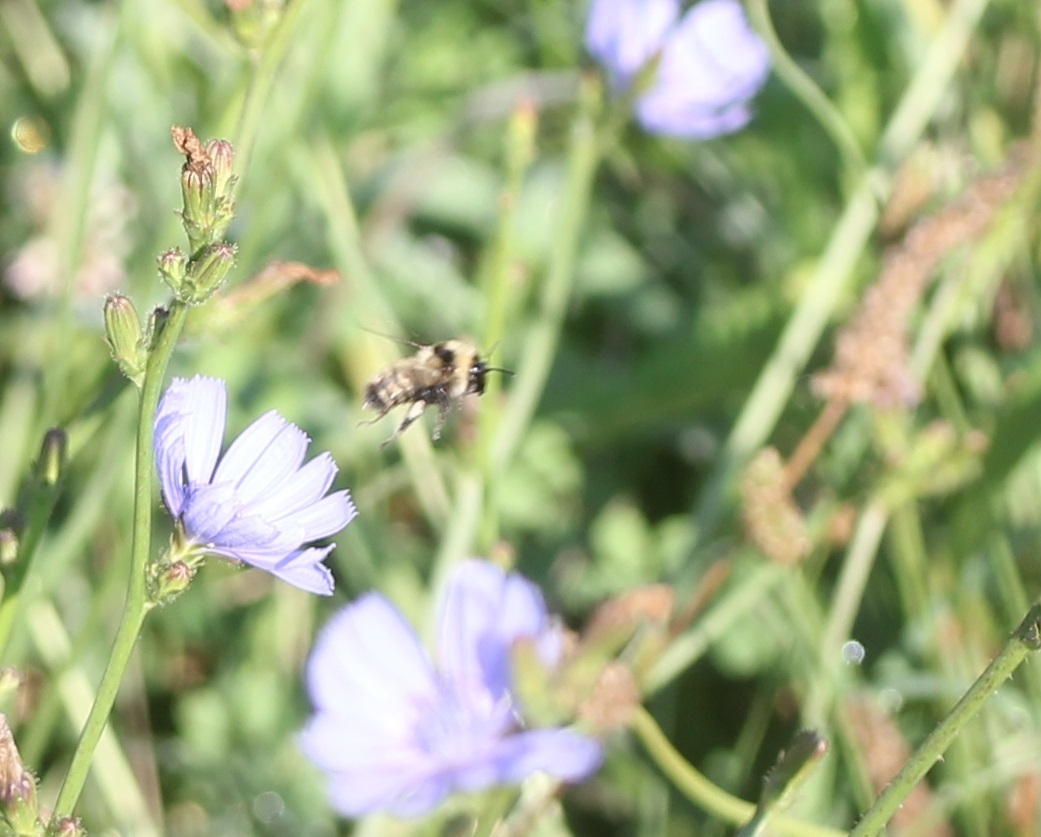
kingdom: Animalia
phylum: Arthropoda
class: Insecta
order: Hymenoptera
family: Apidae
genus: Bombus
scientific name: Bombus fervidus
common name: Yellow bumble bee
